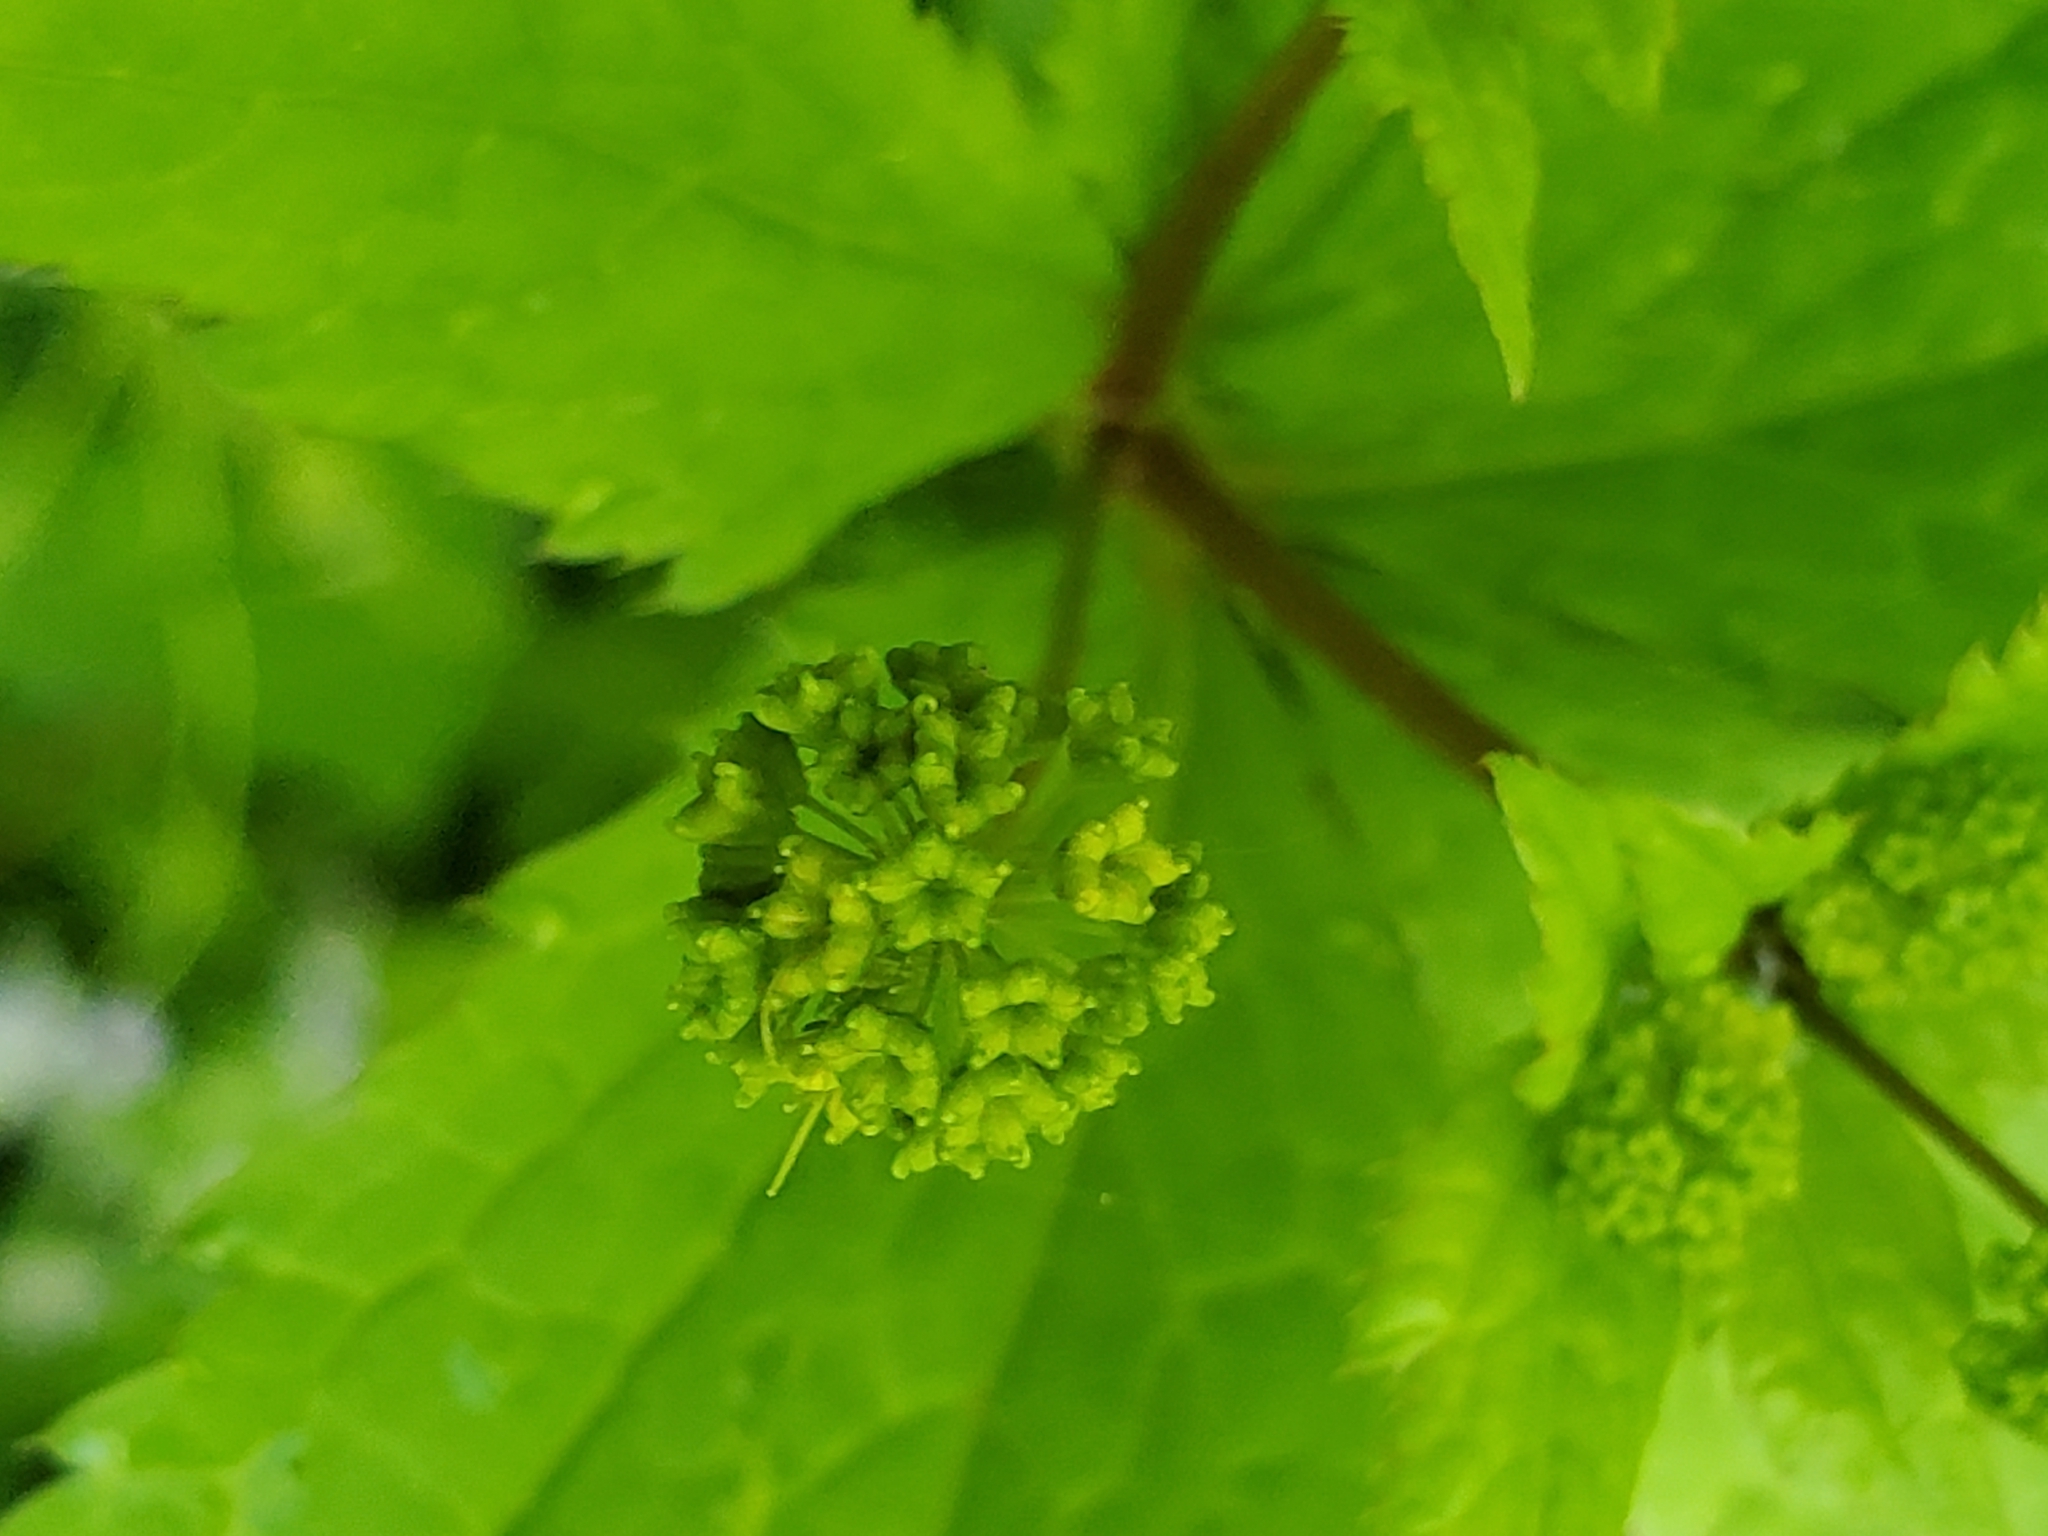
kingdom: Plantae
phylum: Tracheophyta
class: Magnoliopsida
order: Apiales
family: Apiaceae
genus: Sanicula
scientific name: Sanicula odorata
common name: Cluster sanicle
